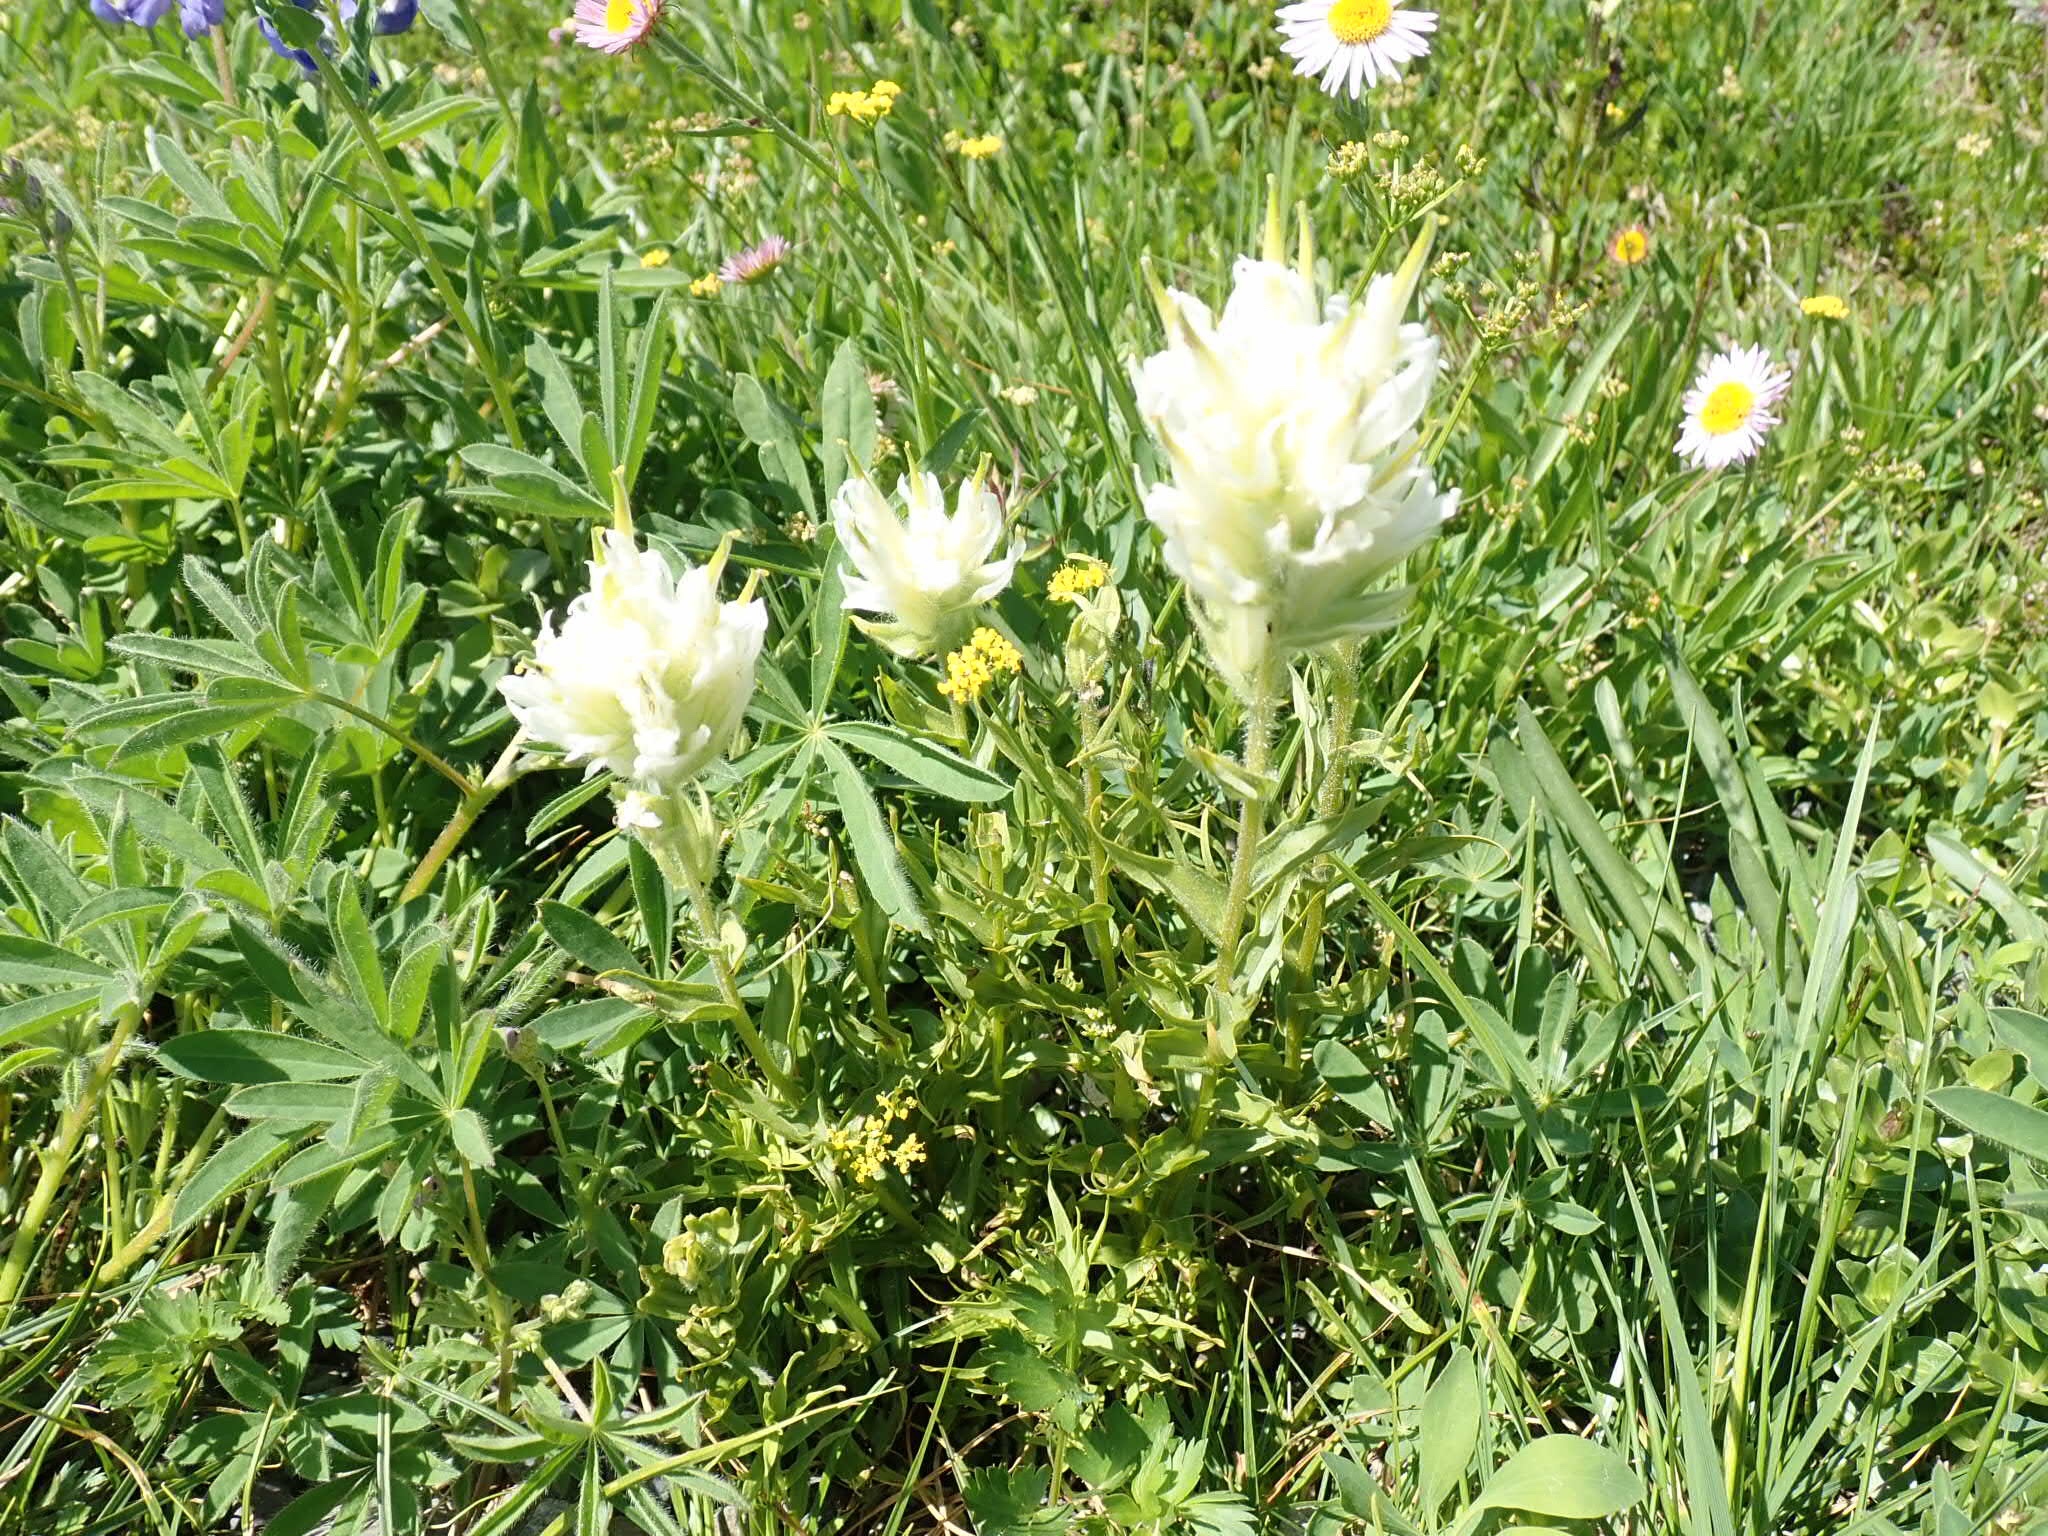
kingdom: Plantae
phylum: Tracheophyta
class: Magnoliopsida
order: Lamiales
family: Orobanchaceae
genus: Castilleja
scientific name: Castilleja parviflora
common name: Mountain paintbrush
